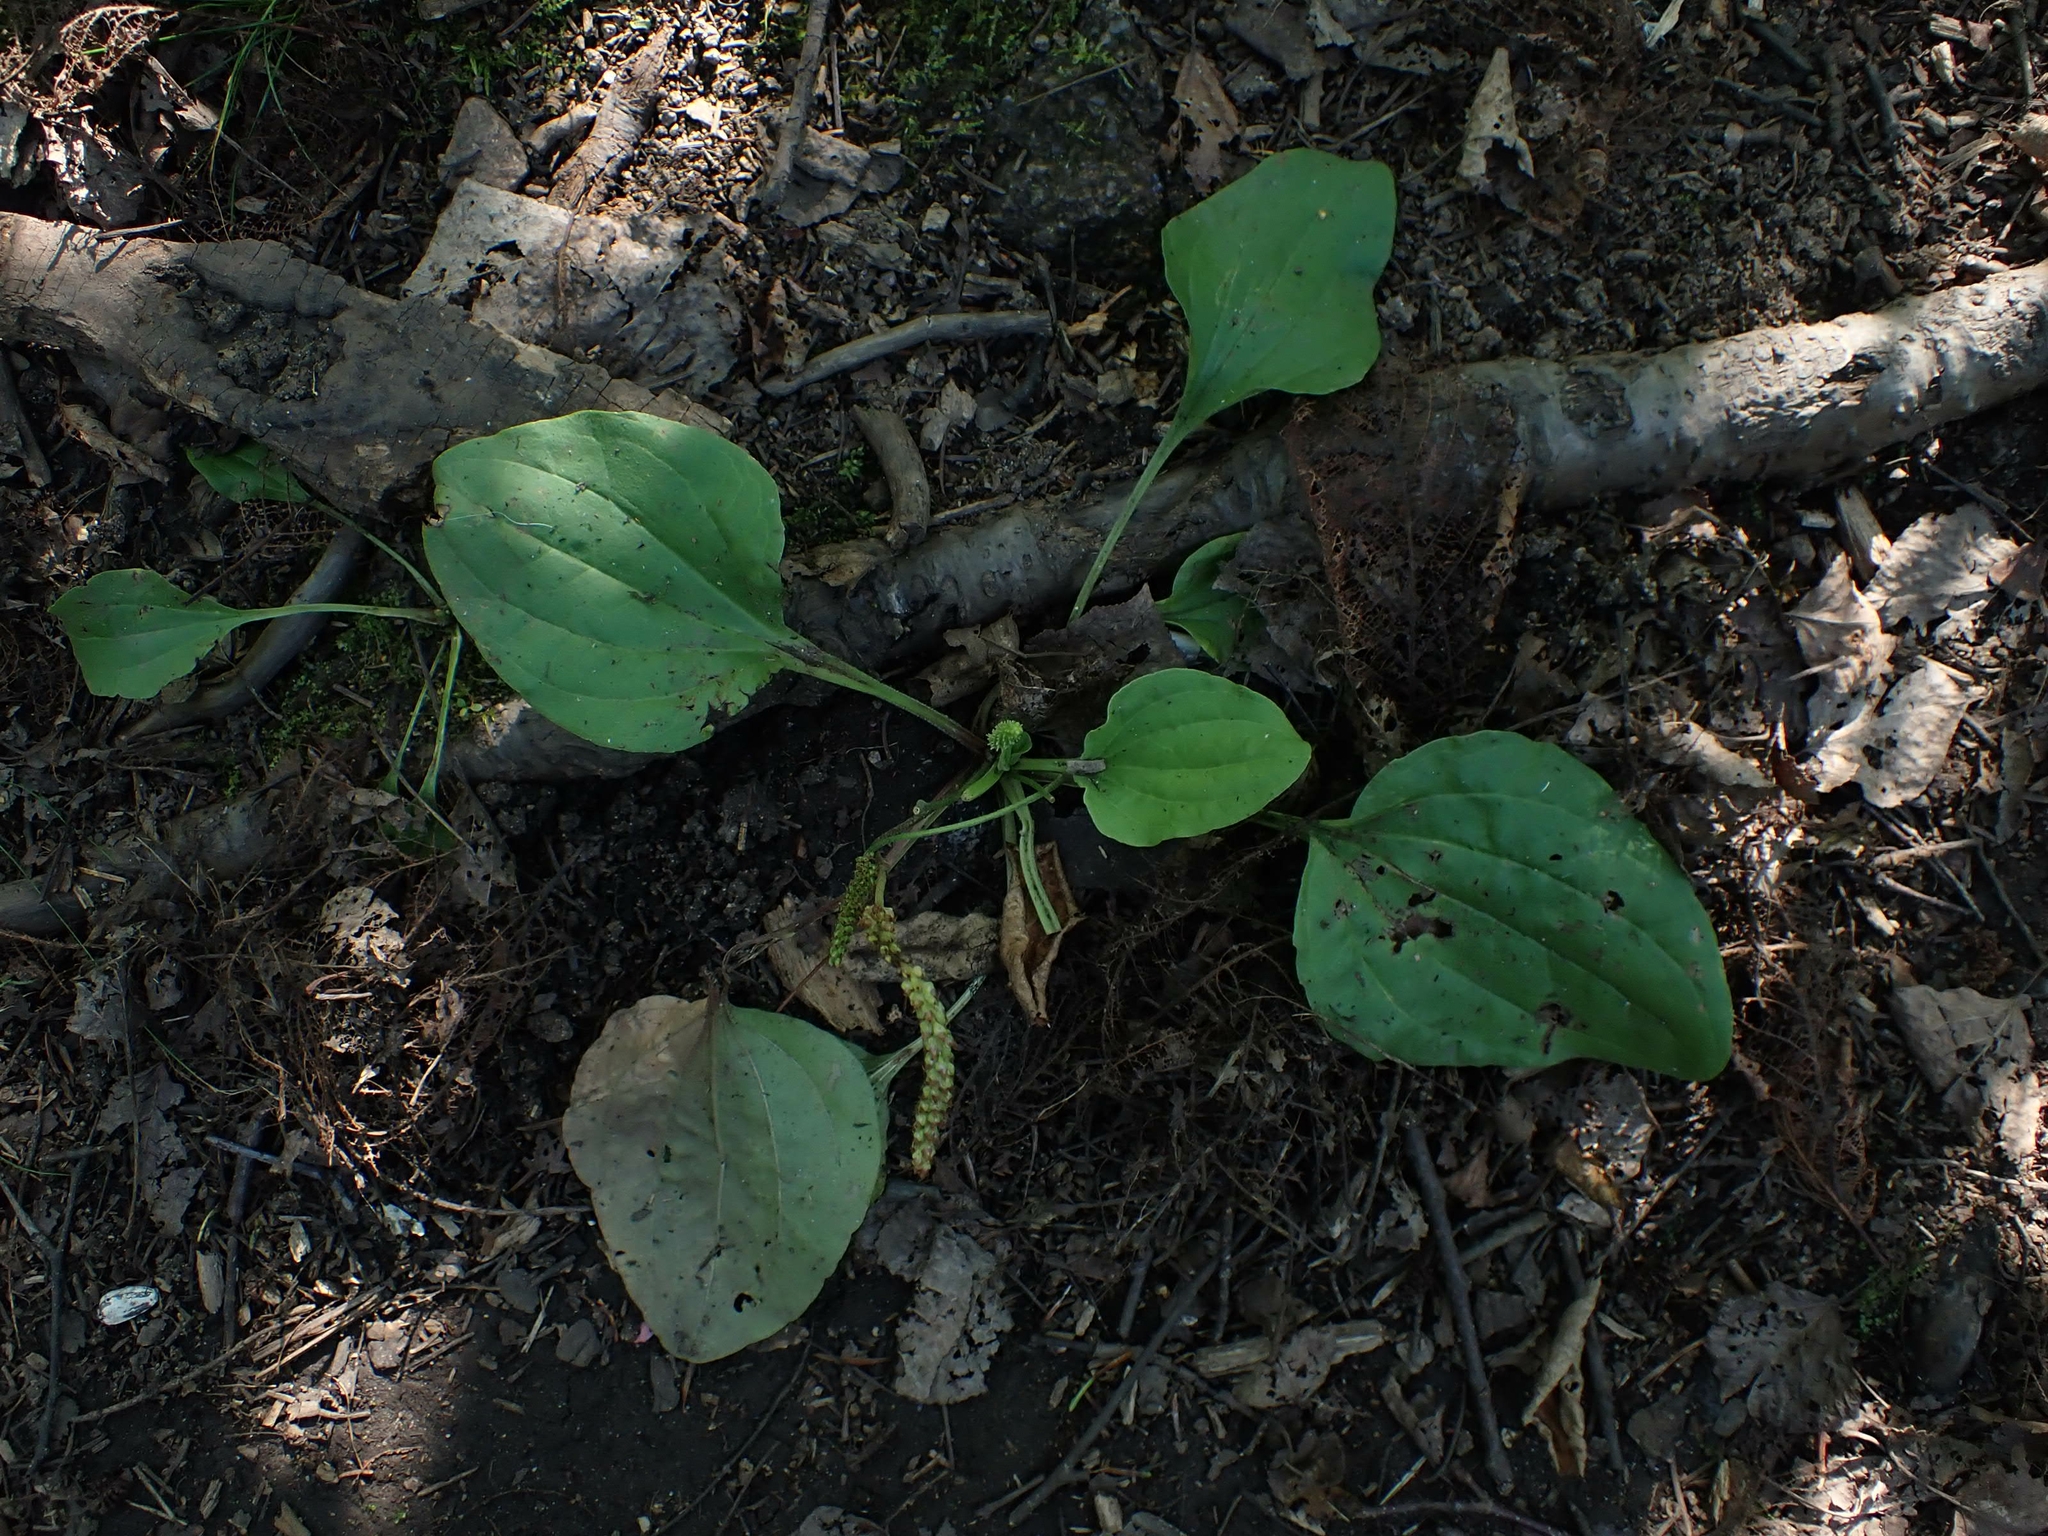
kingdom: Plantae
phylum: Tracheophyta
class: Magnoliopsida
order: Lamiales
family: Plantaginaceae
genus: Plantago
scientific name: Plantago rugelii
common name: American plantain
